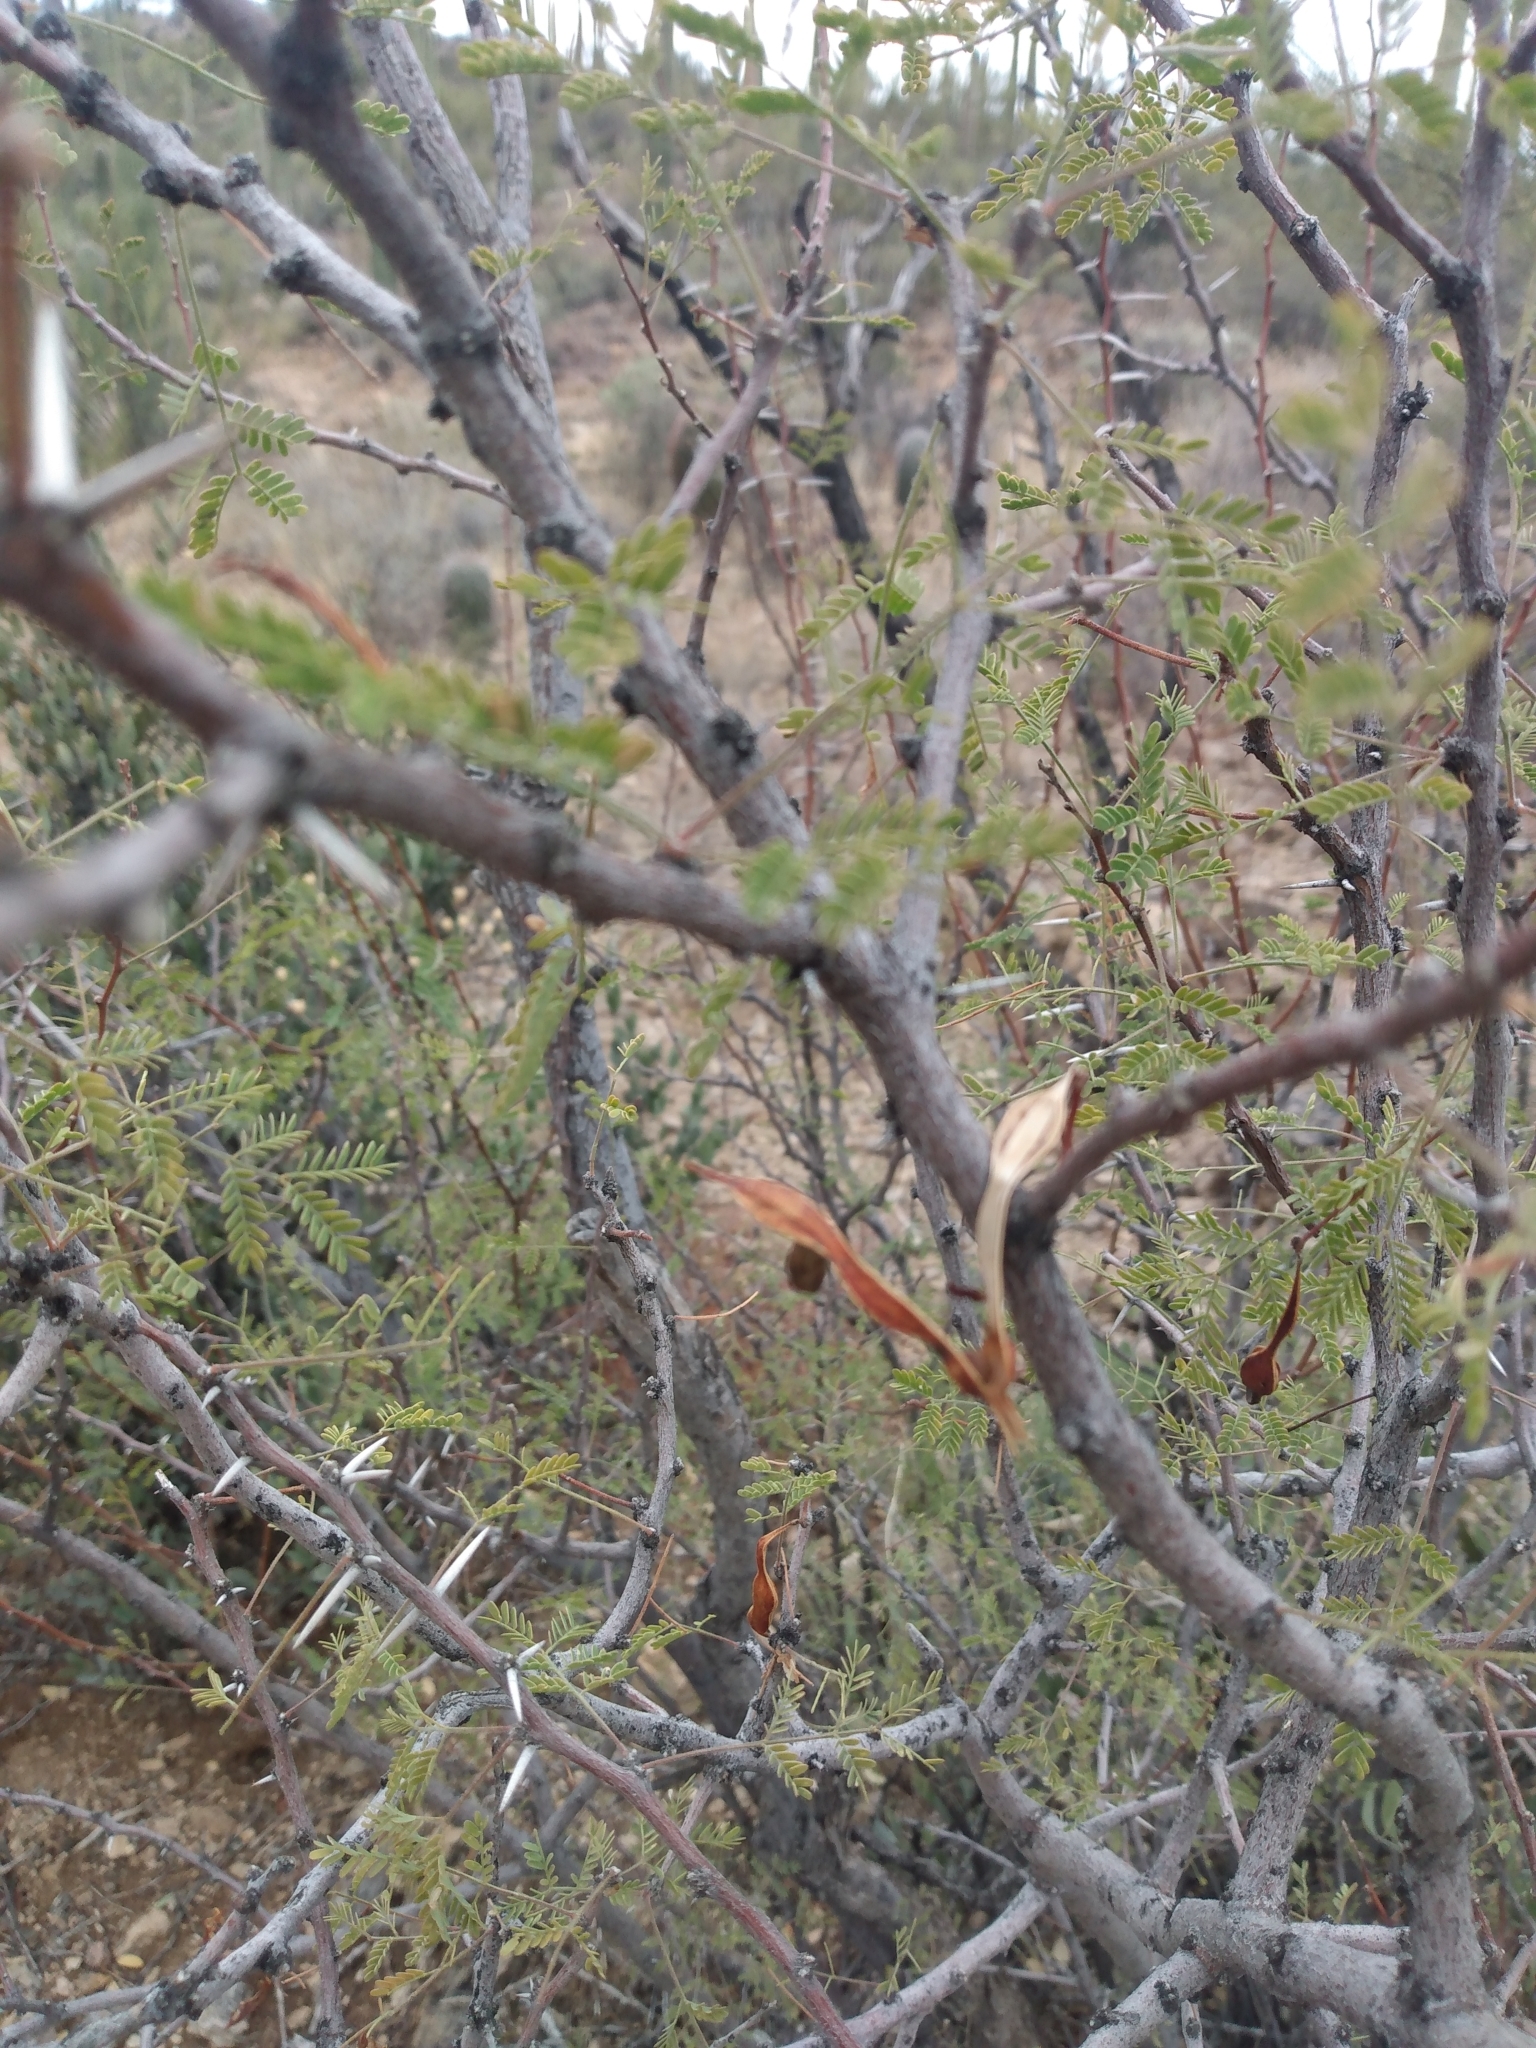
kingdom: Plantae
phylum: Tracheophyta
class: Magnoliopsida
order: Fabales
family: Fabaceae
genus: Vachellia
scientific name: Vachellia constricta
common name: Mescat acacia
